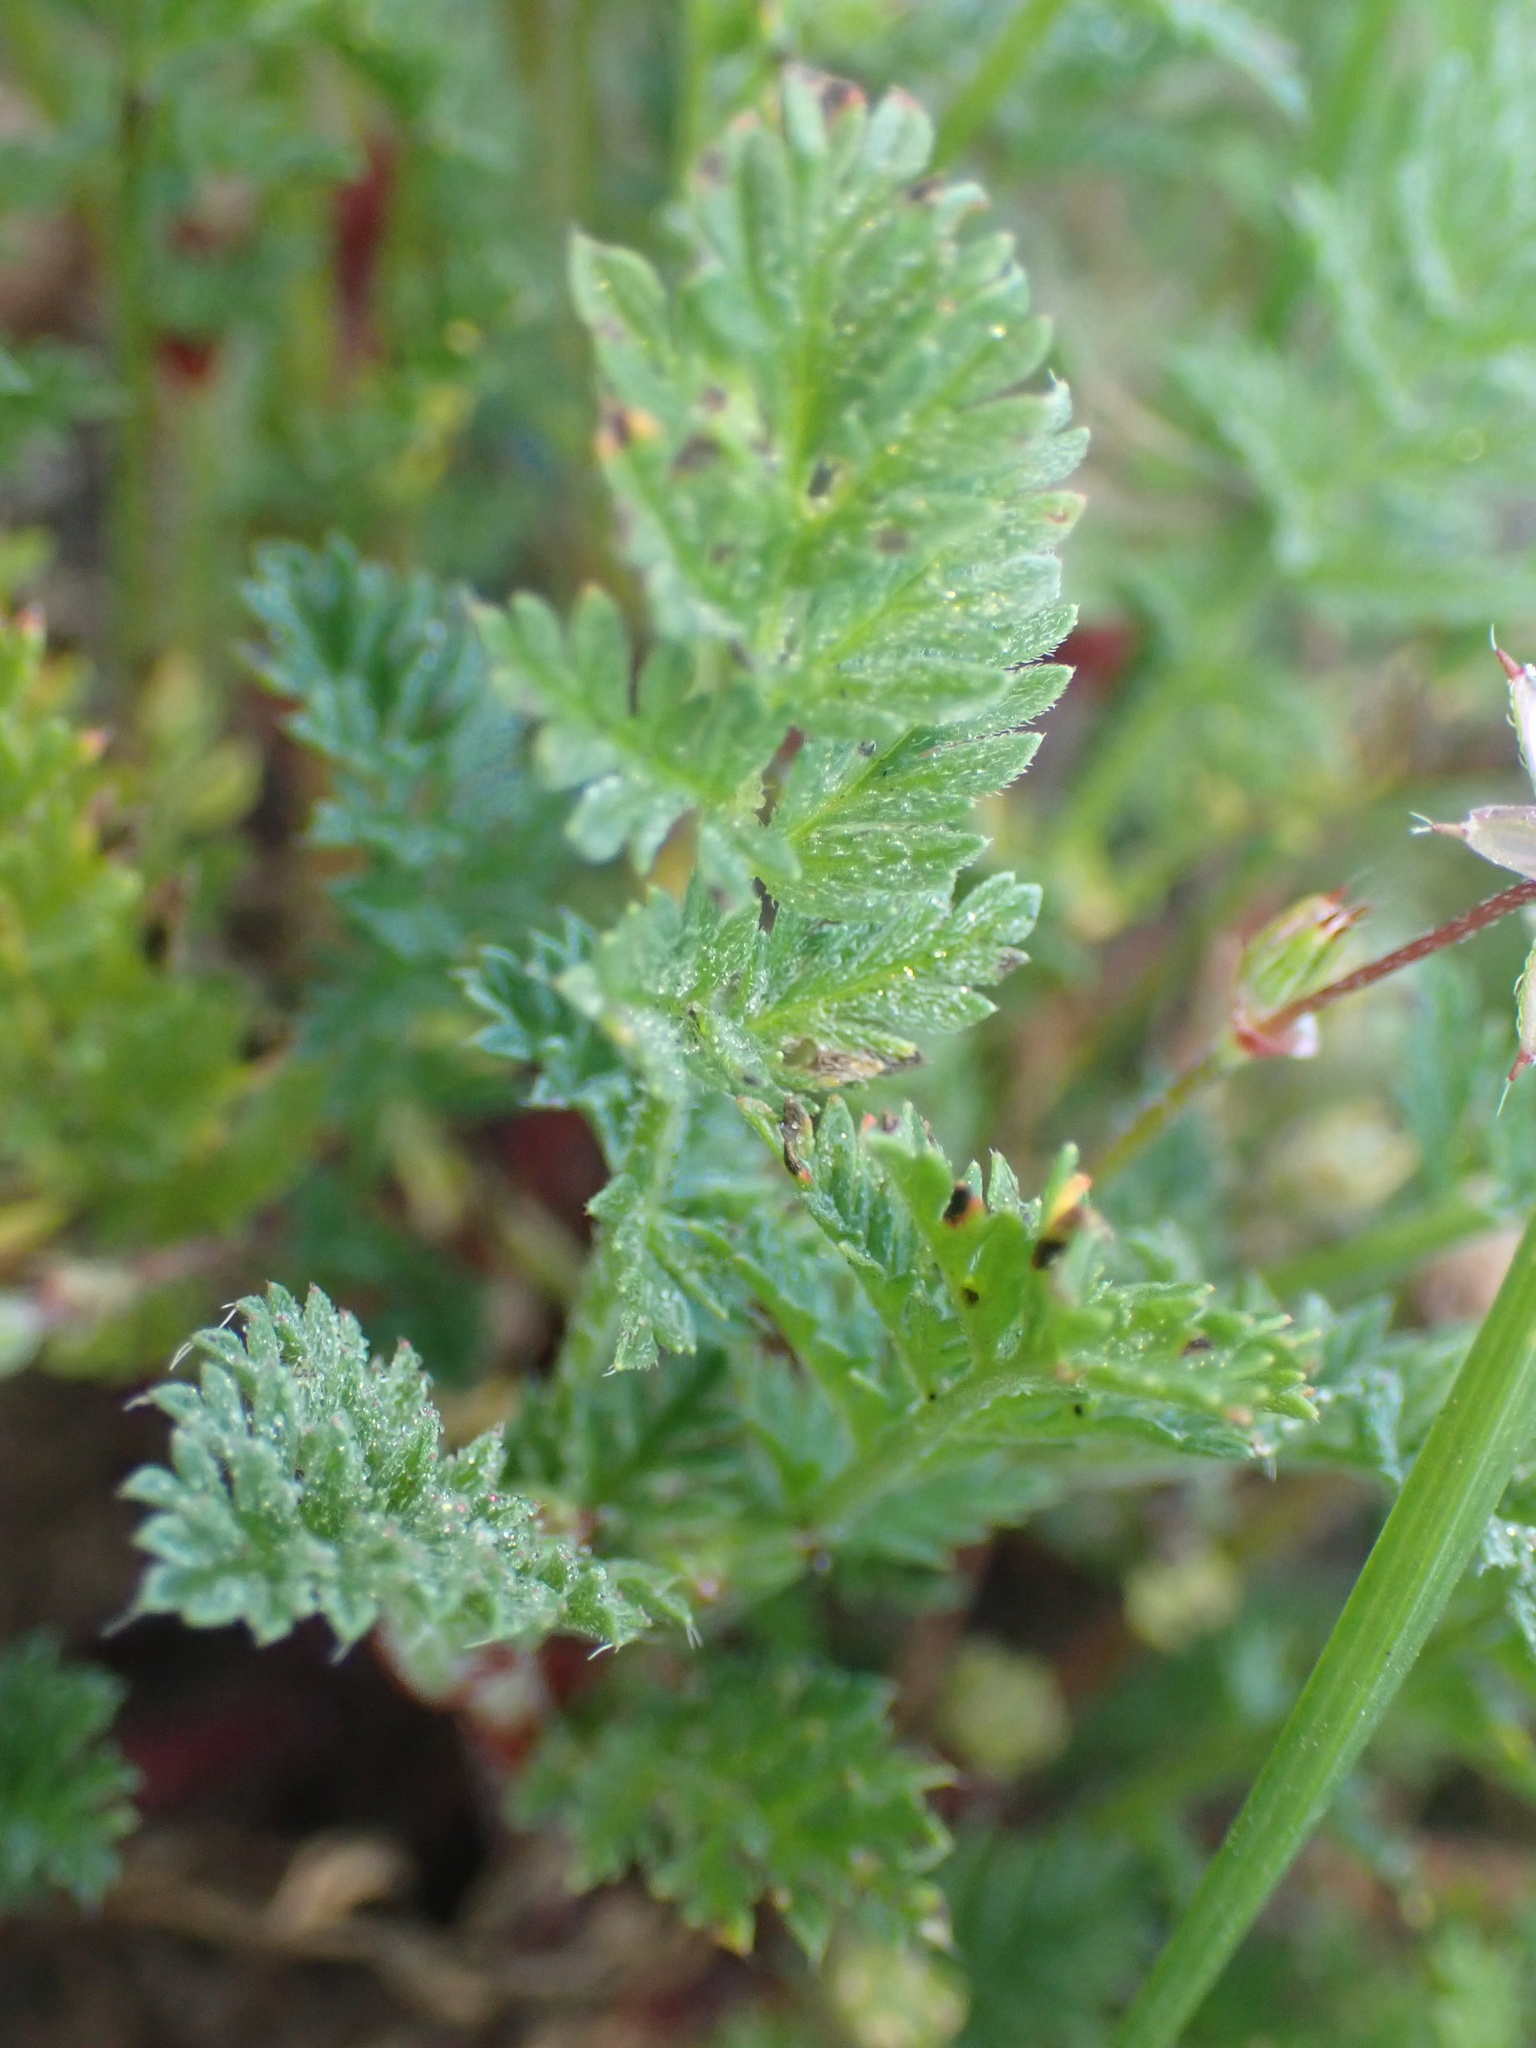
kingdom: Plantae
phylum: Tracheophyta
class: Magnoliopsida
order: Geraniales
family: Geraniaceae
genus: Erodium
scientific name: Erodium cicutarium
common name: Common stork's-bill
